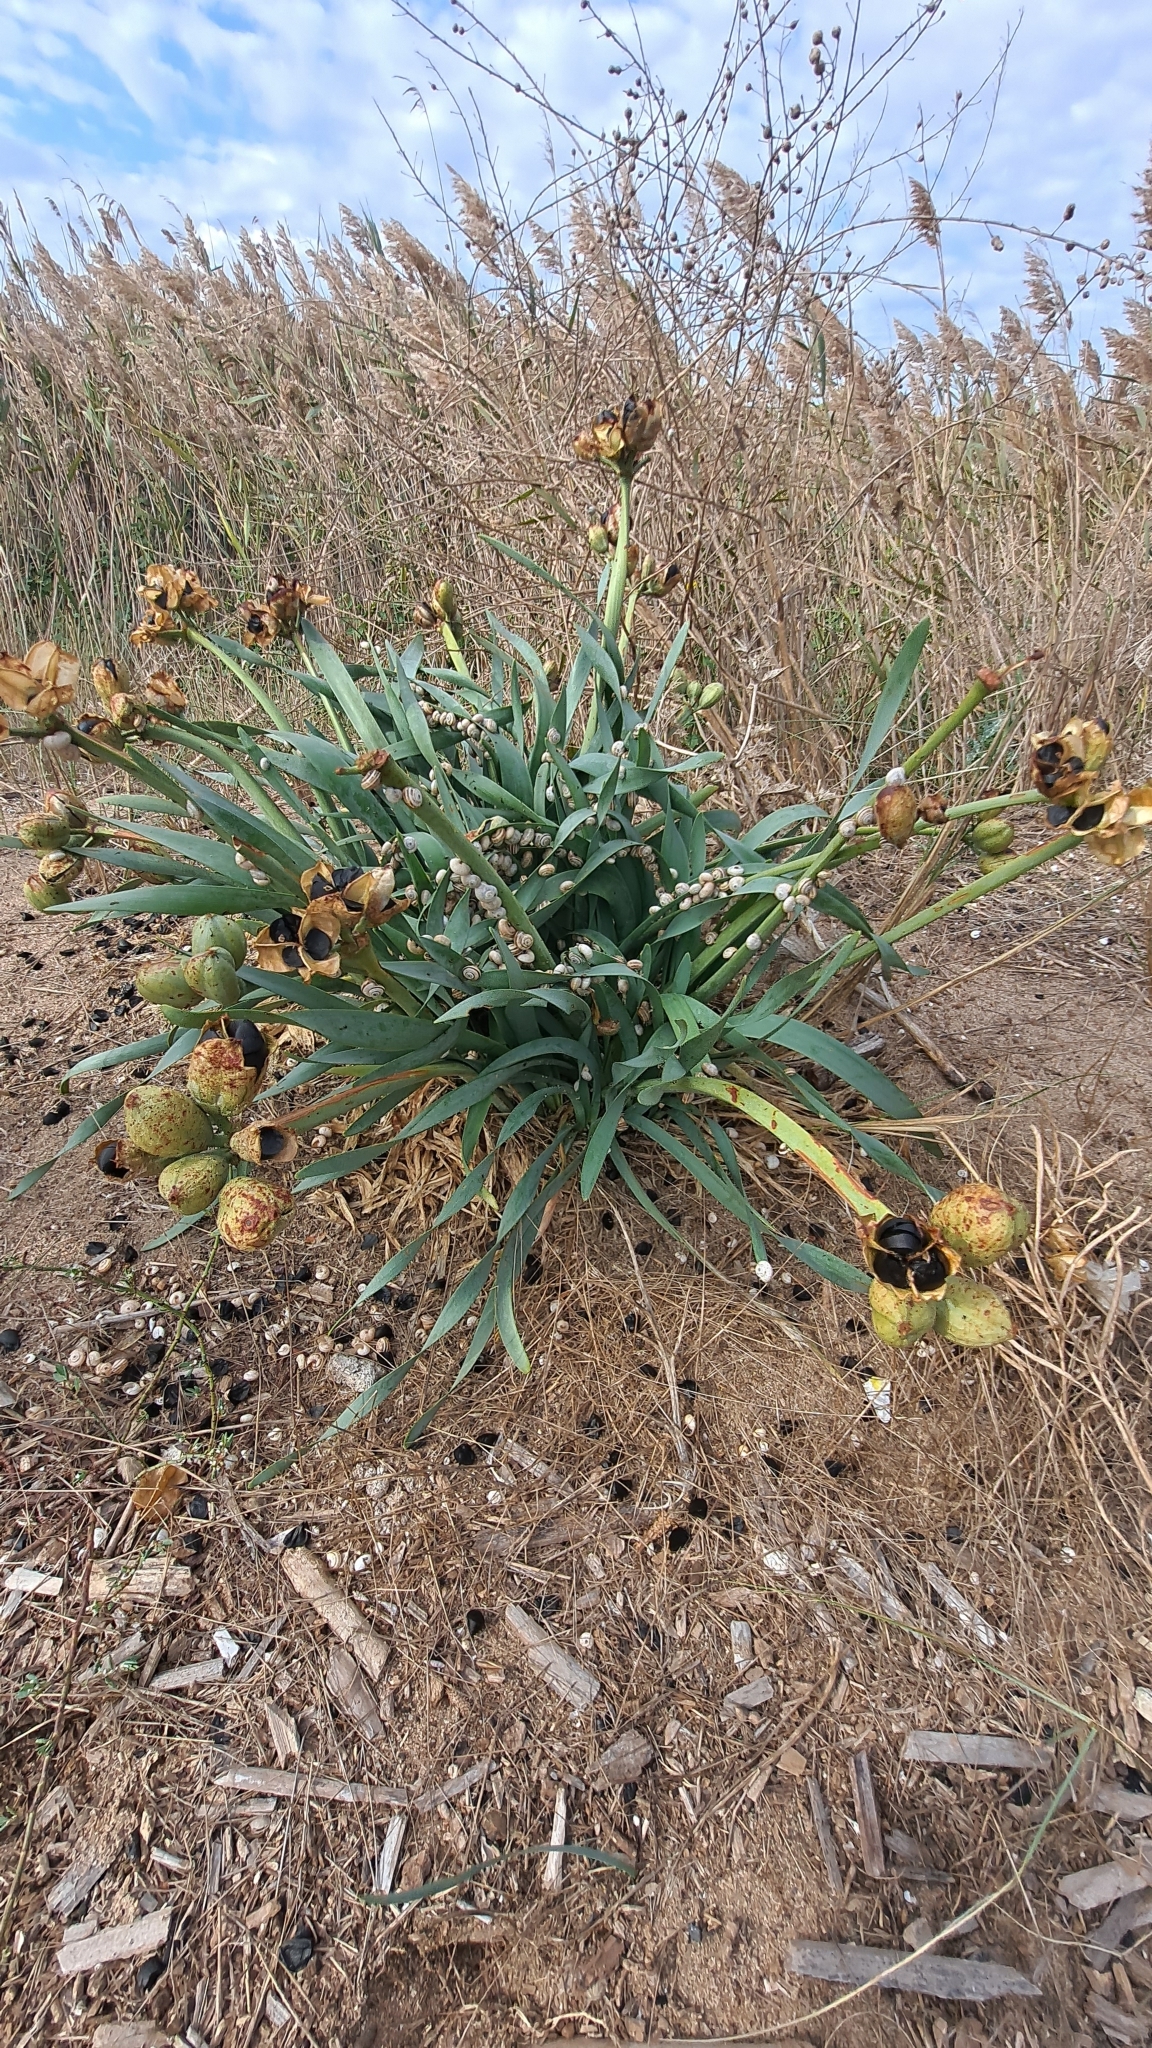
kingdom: Plantae
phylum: Tracheophyta
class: Liliopsida
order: Asparagales
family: Amaryllidaceae
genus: Pancratium
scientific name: Pancratium maritimum
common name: Sea-daffodil
